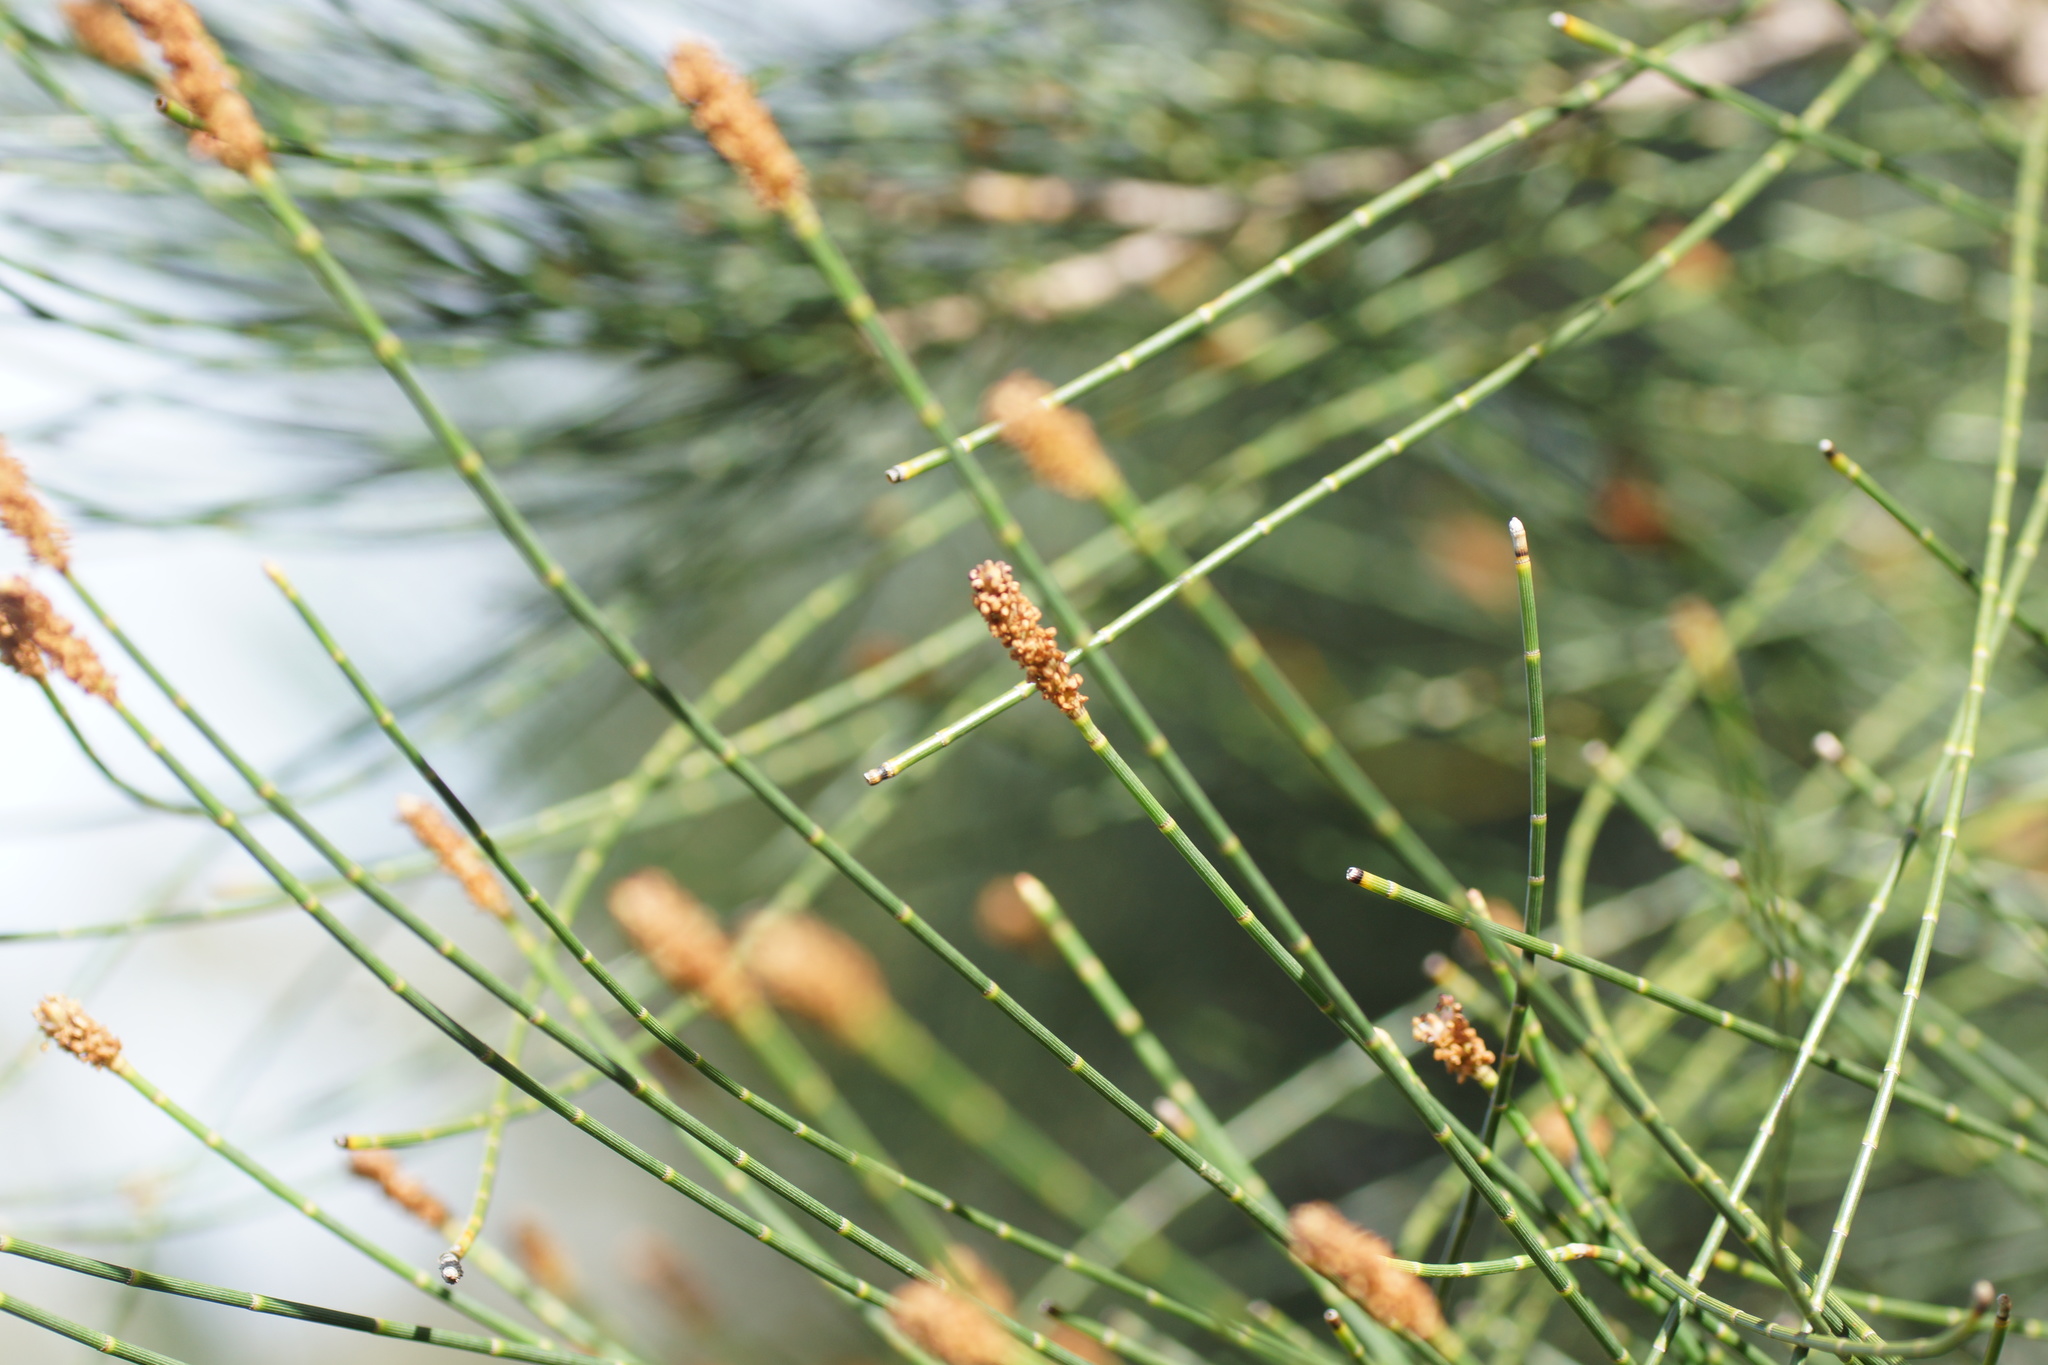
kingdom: Plantae
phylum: Tracheophyta
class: Magnoliopsida
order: Fagales
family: Casuarinaceae
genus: Casuarina
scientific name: Casuarina cunninghamiana
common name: River sheoak
